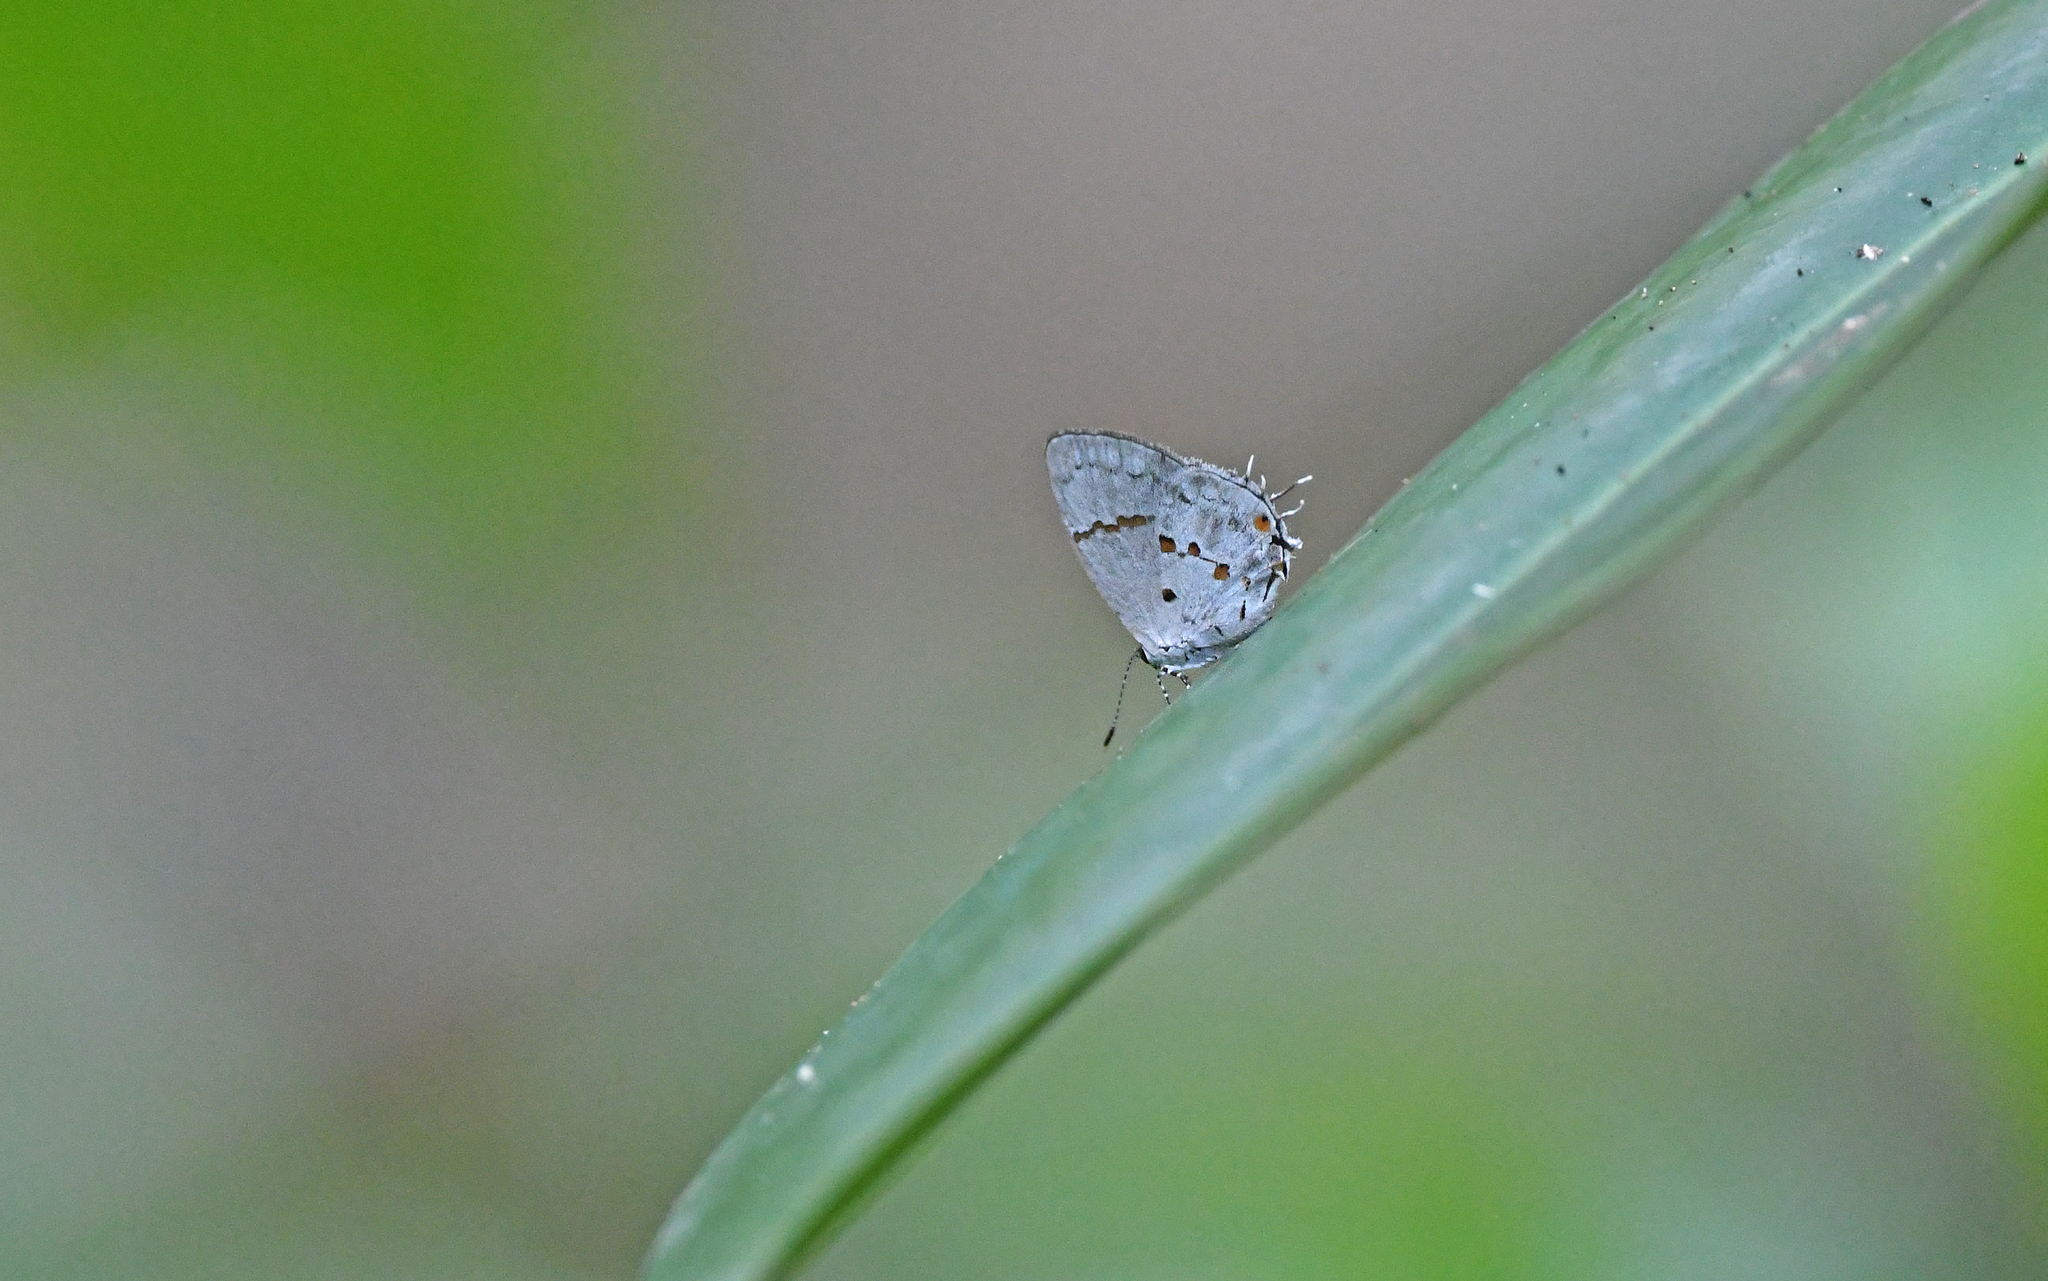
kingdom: Animalia
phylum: Arthropoda
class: Insecta
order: Lepidoptera
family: Lycaenidae
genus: Thecla
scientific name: Thecla celmus
